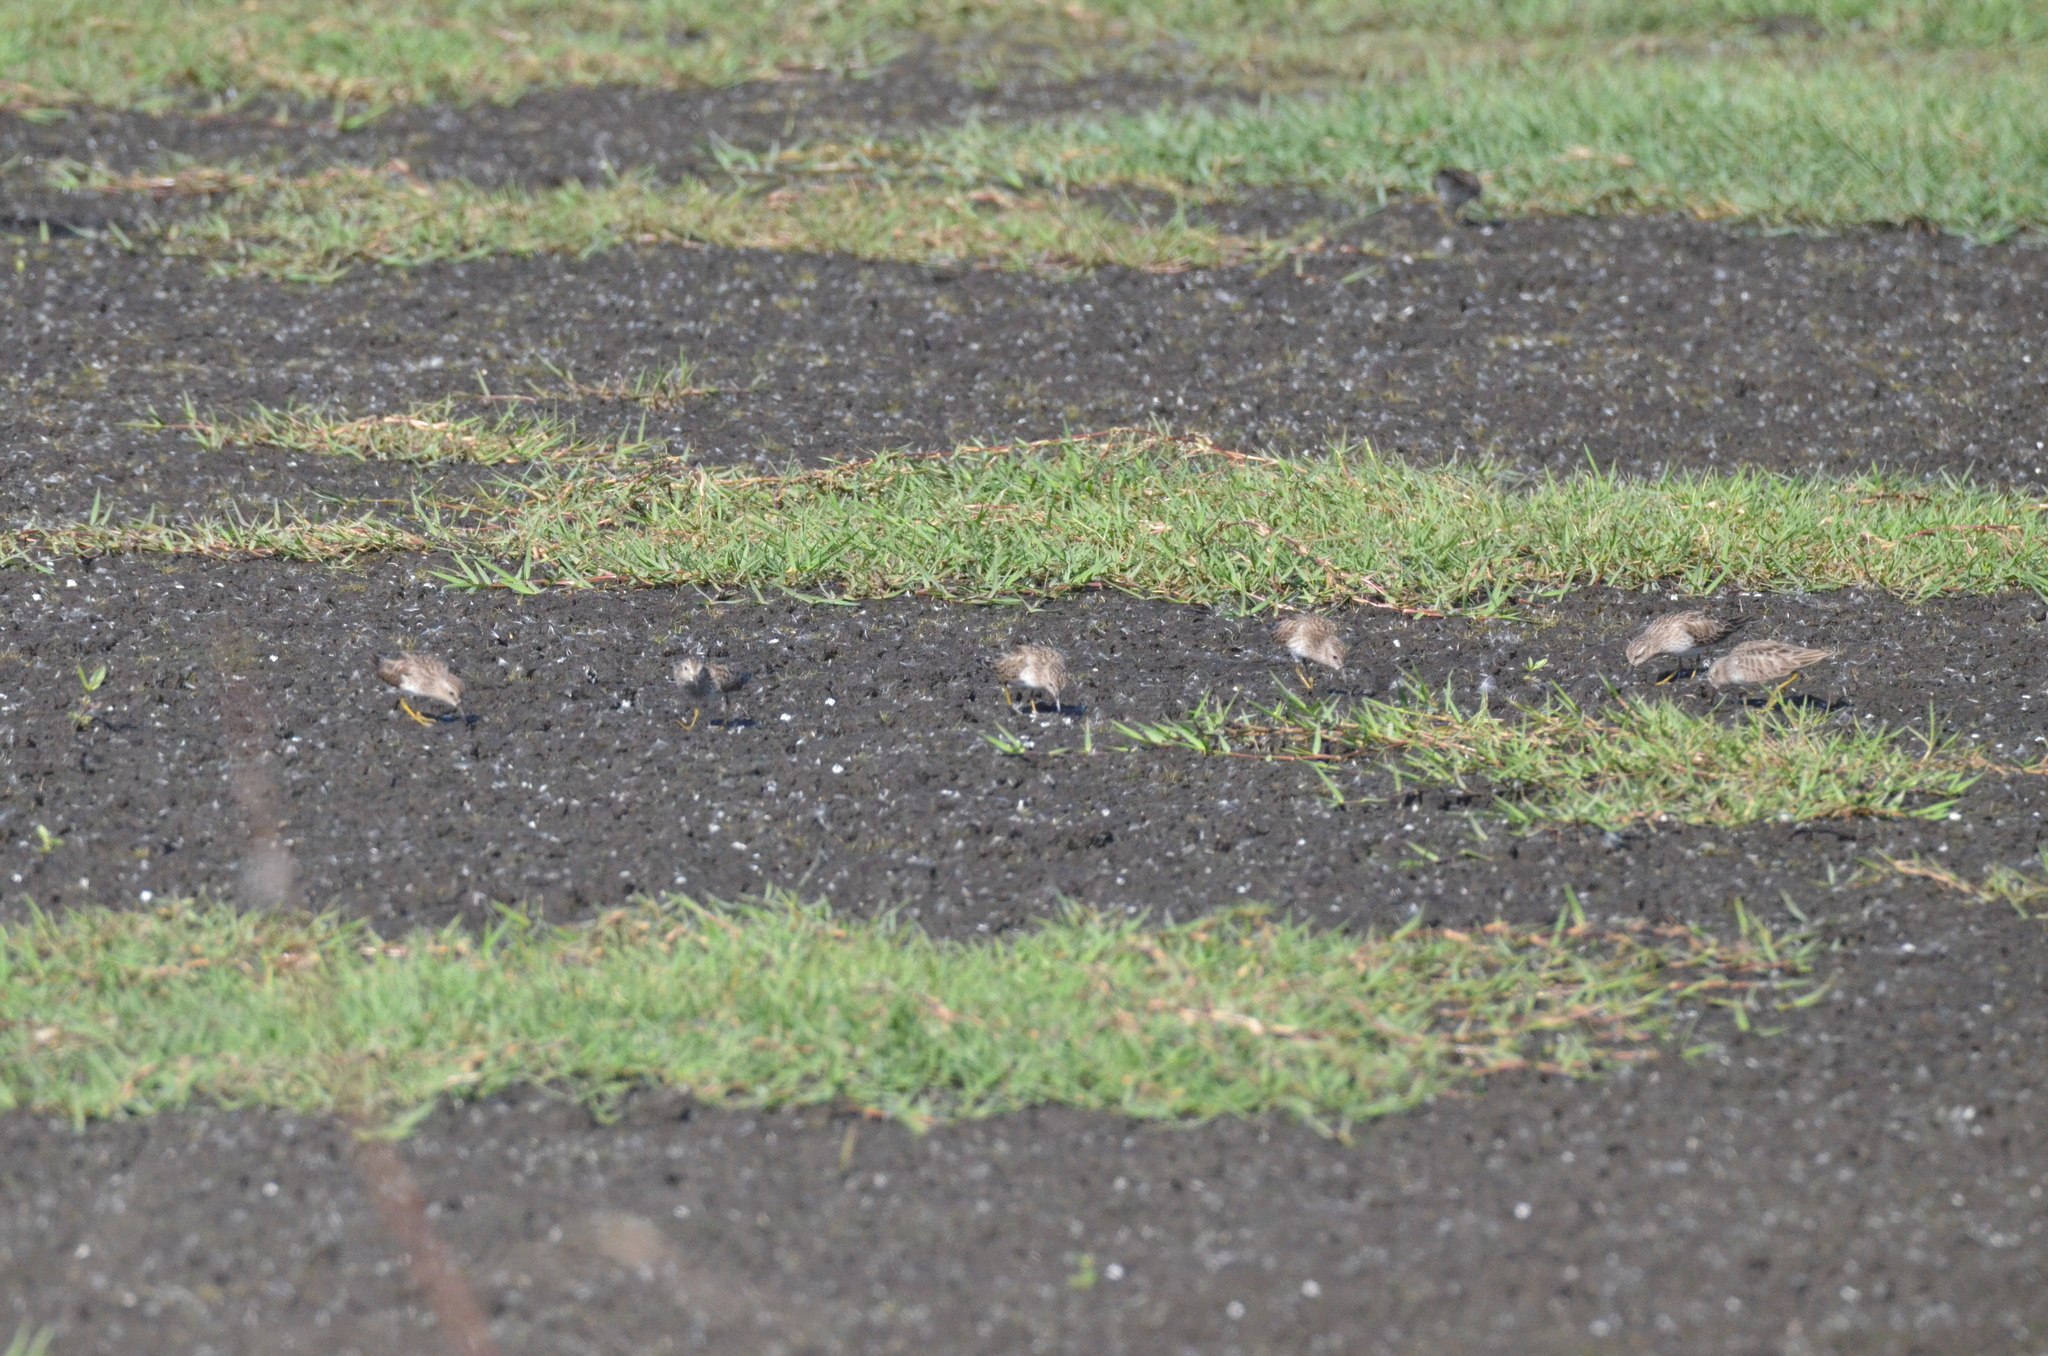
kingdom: Animalia
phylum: Chordata
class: Aves
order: Charadriiformes
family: Scolopacidae
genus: Calidris
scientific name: Calidris minutilla
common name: Least sandpiper
